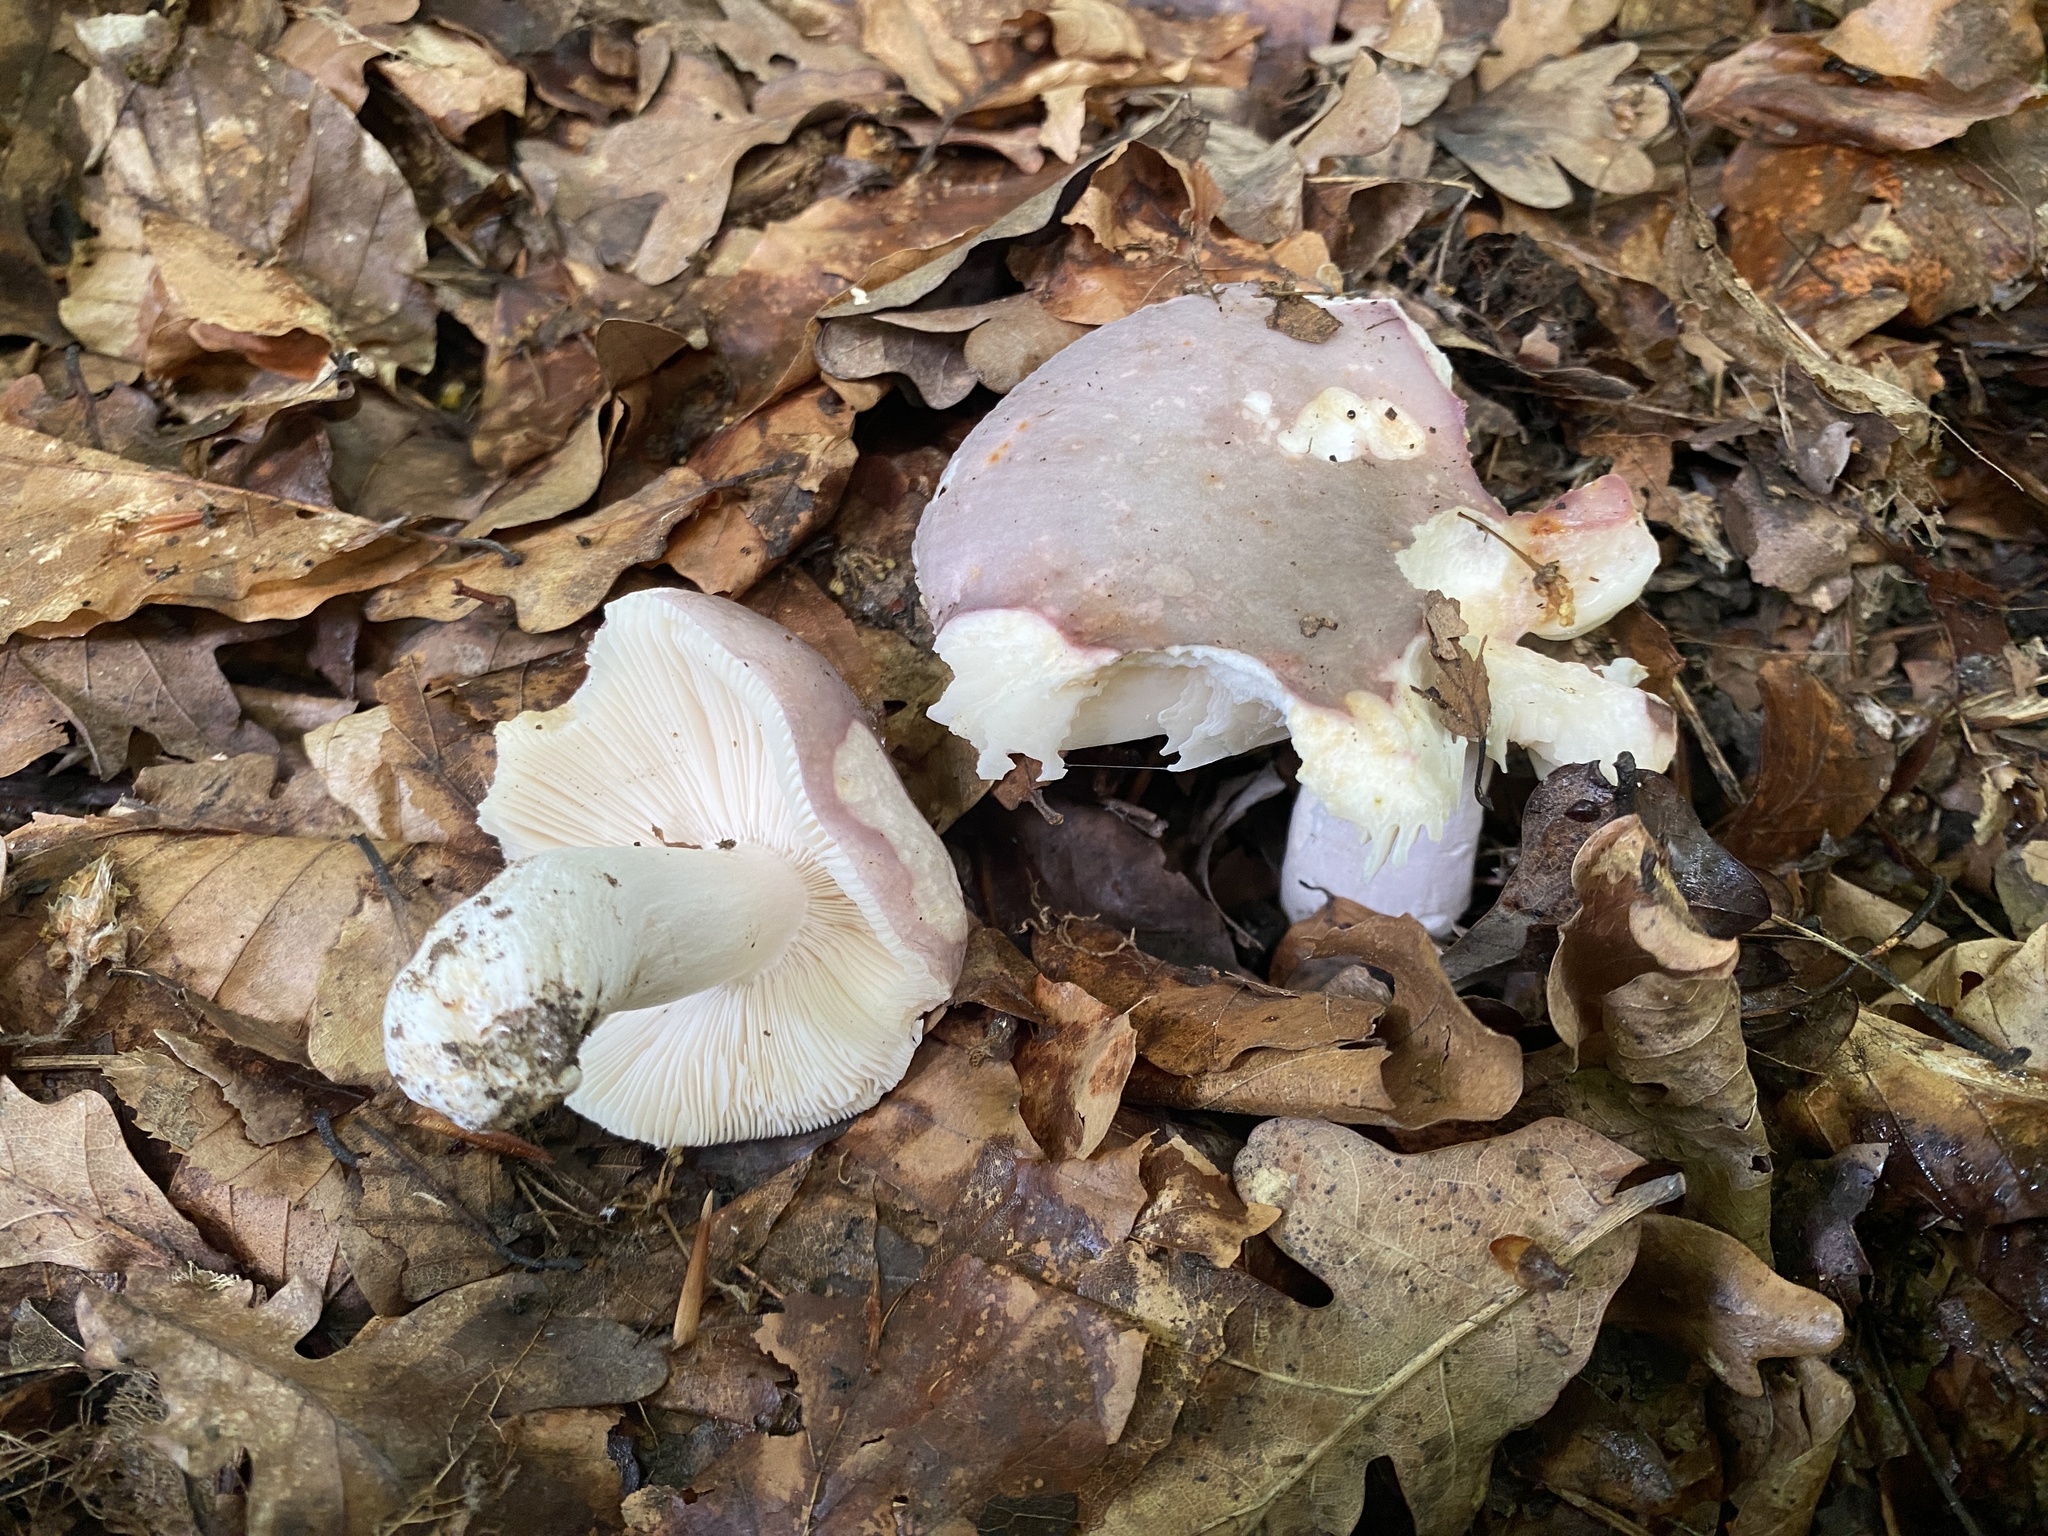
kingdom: Fungi
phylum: Basidiomycota
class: Agaricomycetes
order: Russulales
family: Russulaceae
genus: Russula
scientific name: Russula cyanoxantha
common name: Charcoal burner
